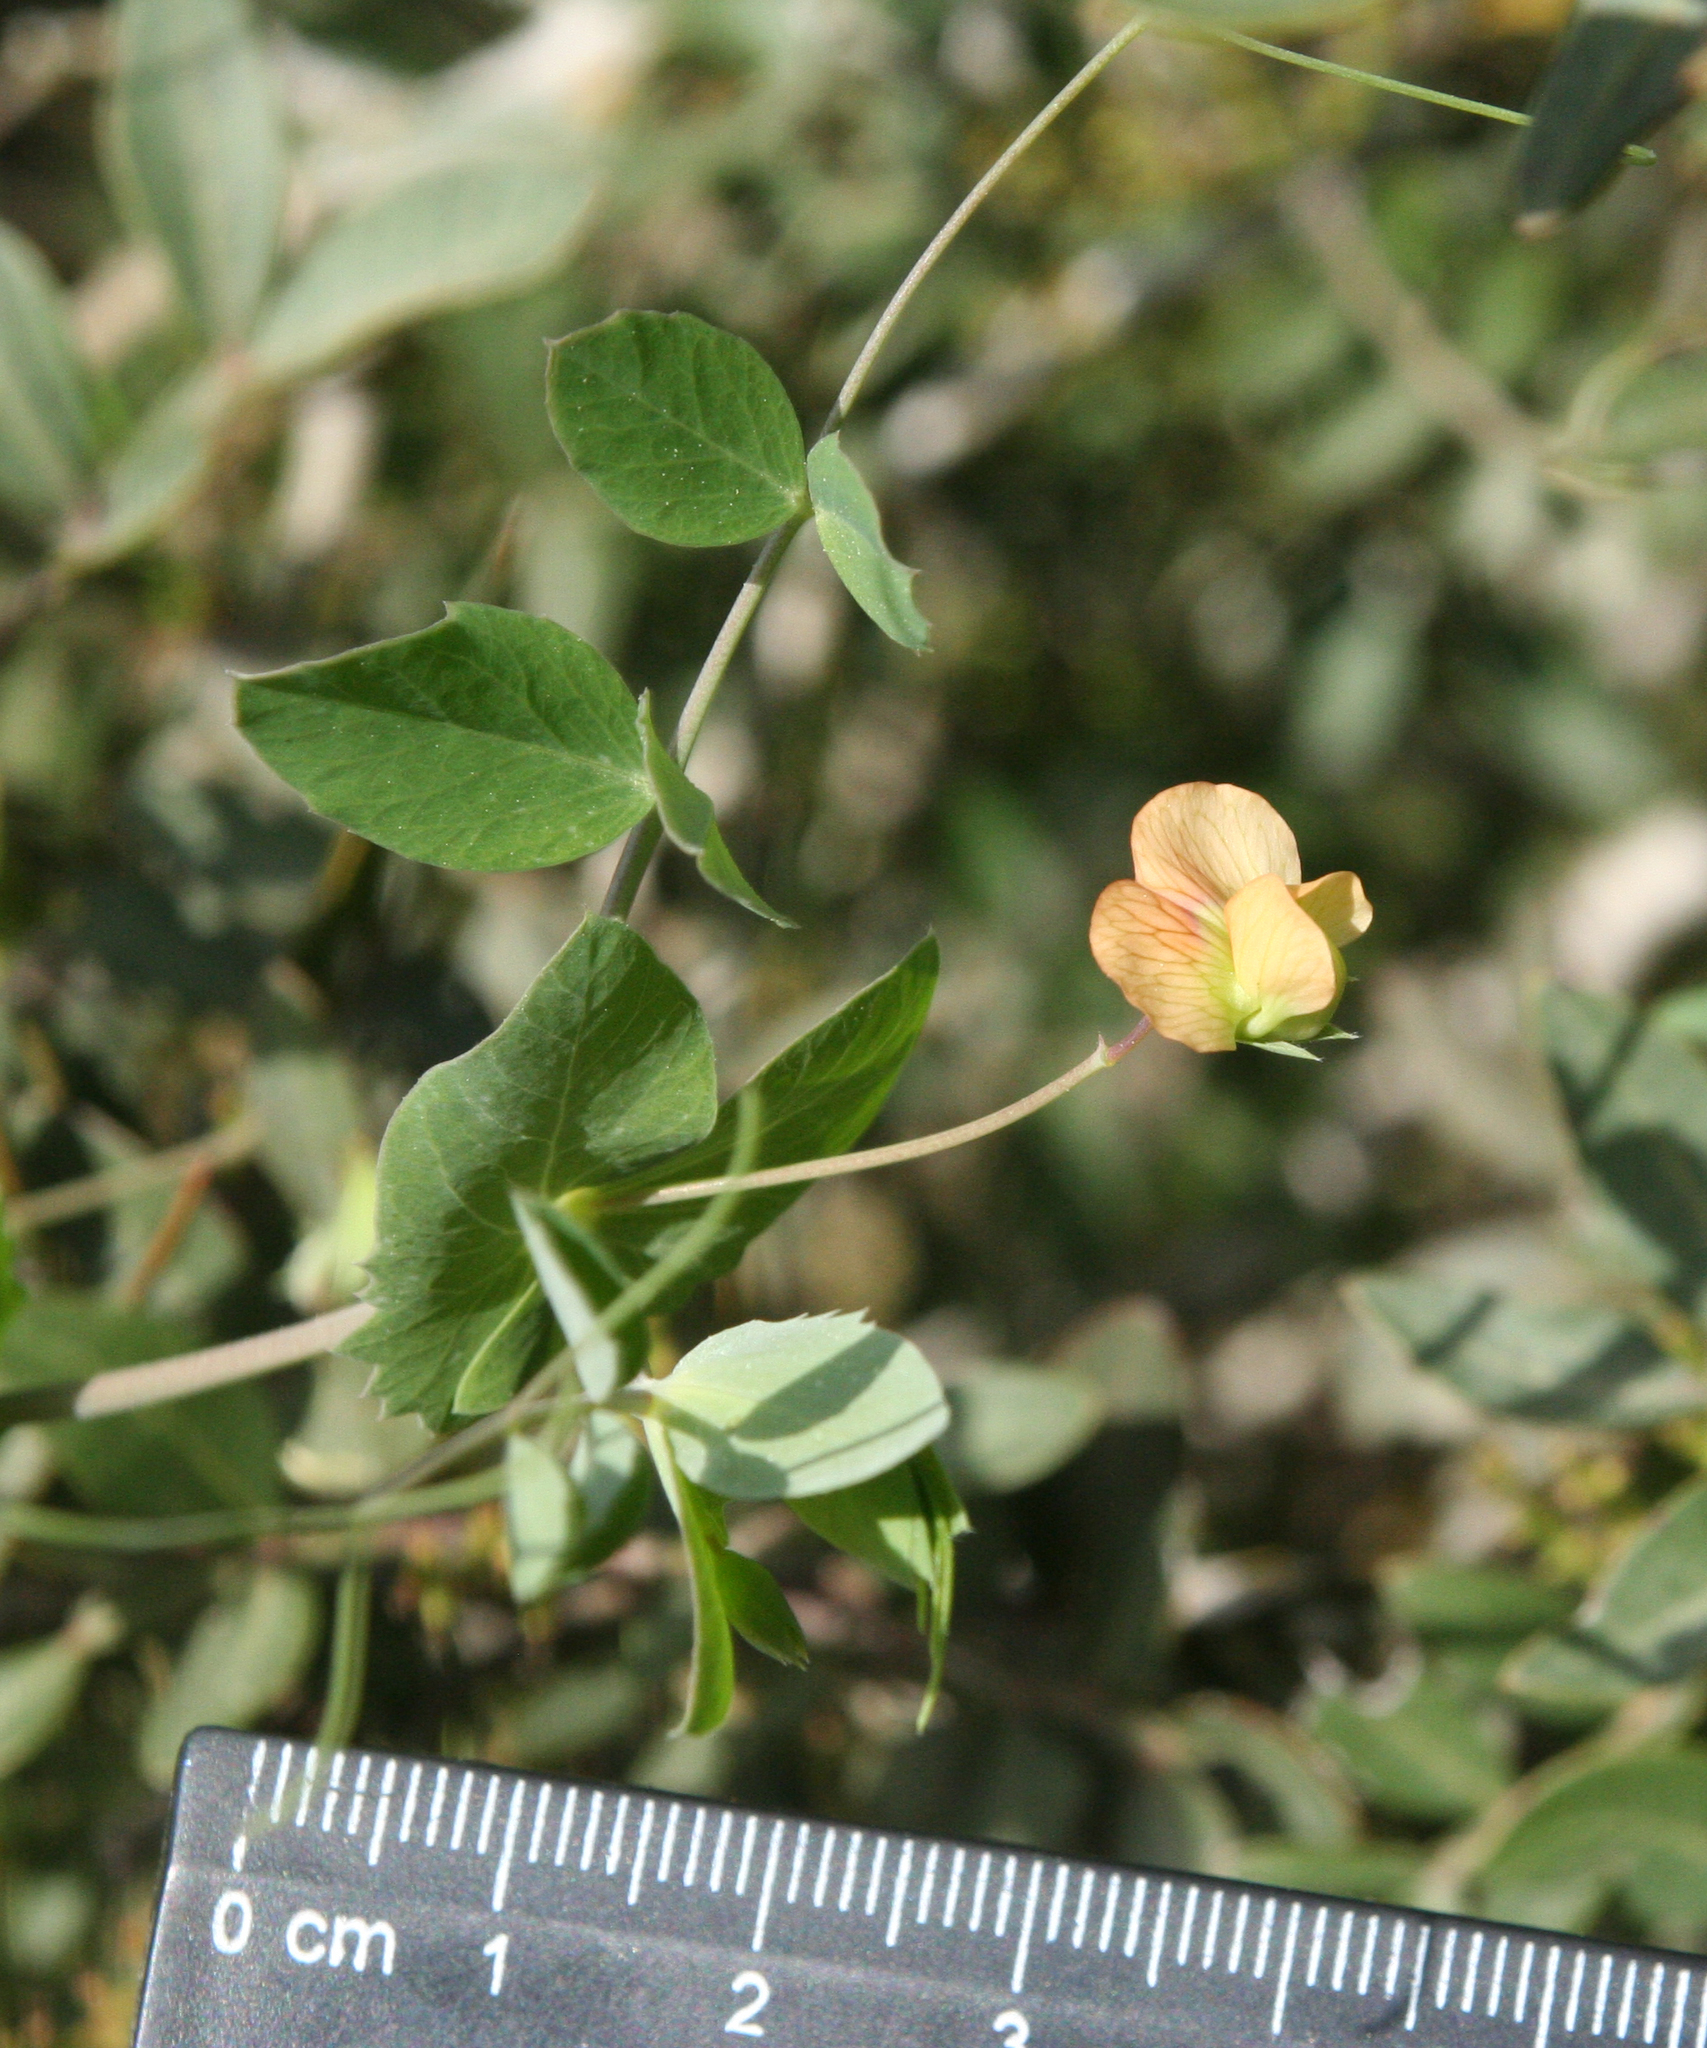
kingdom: Plantae
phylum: Tracheophyta
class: Magnoliopsida
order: Fabales
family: Fabaceae
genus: Lathyrus
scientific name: Lathyrus fulvus
